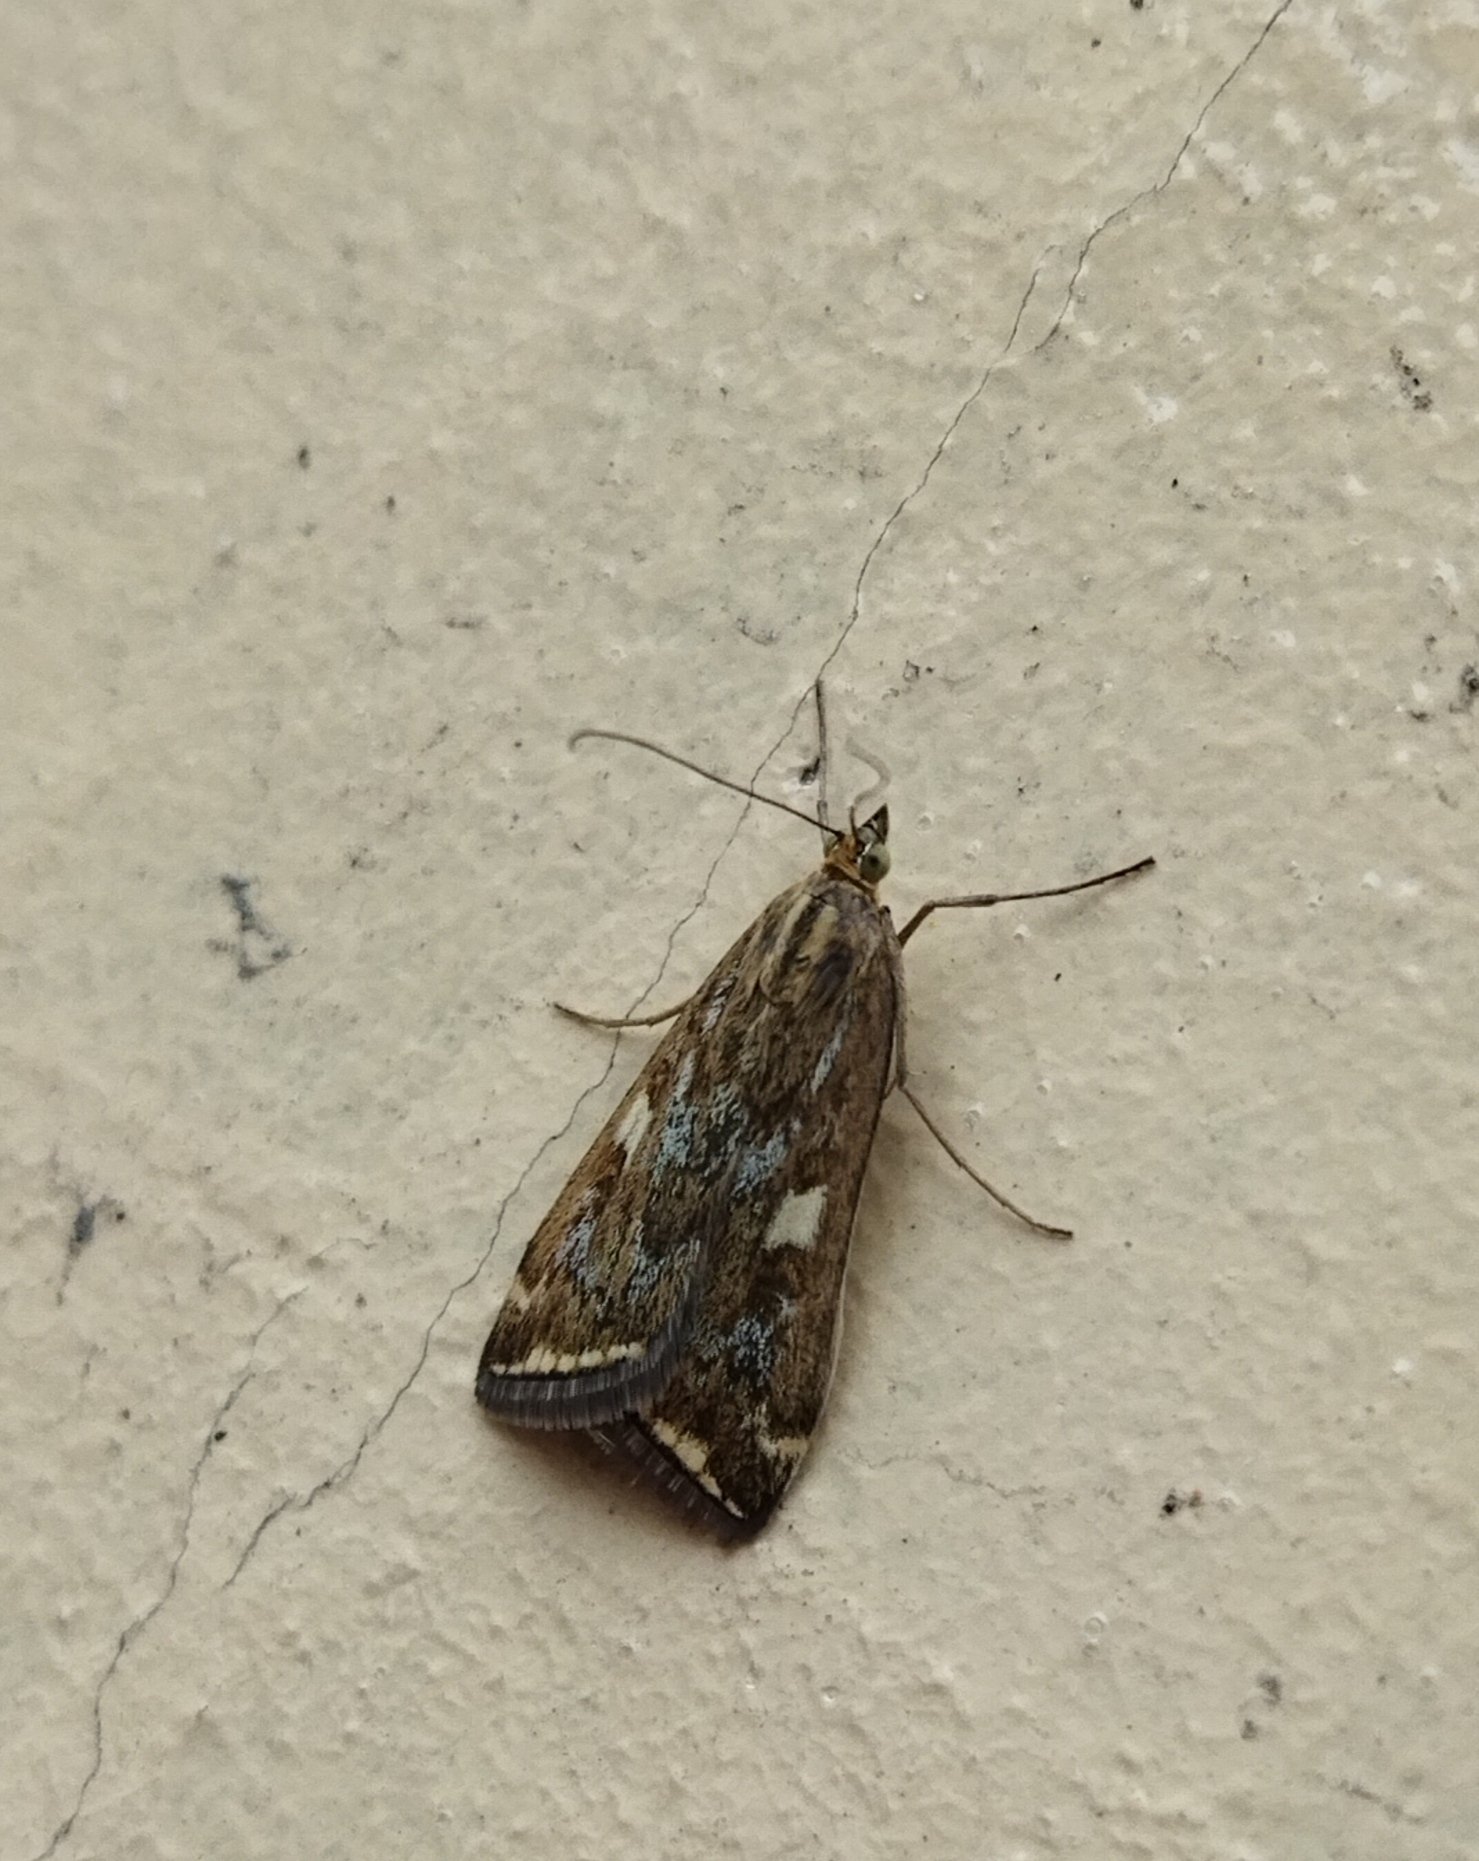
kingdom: Animalia
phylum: Arthropoda
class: Insecta
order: Lepidoptera
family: Crambidae
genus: Loxostege
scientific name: Loxostege sticticalis
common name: Crambid moth
